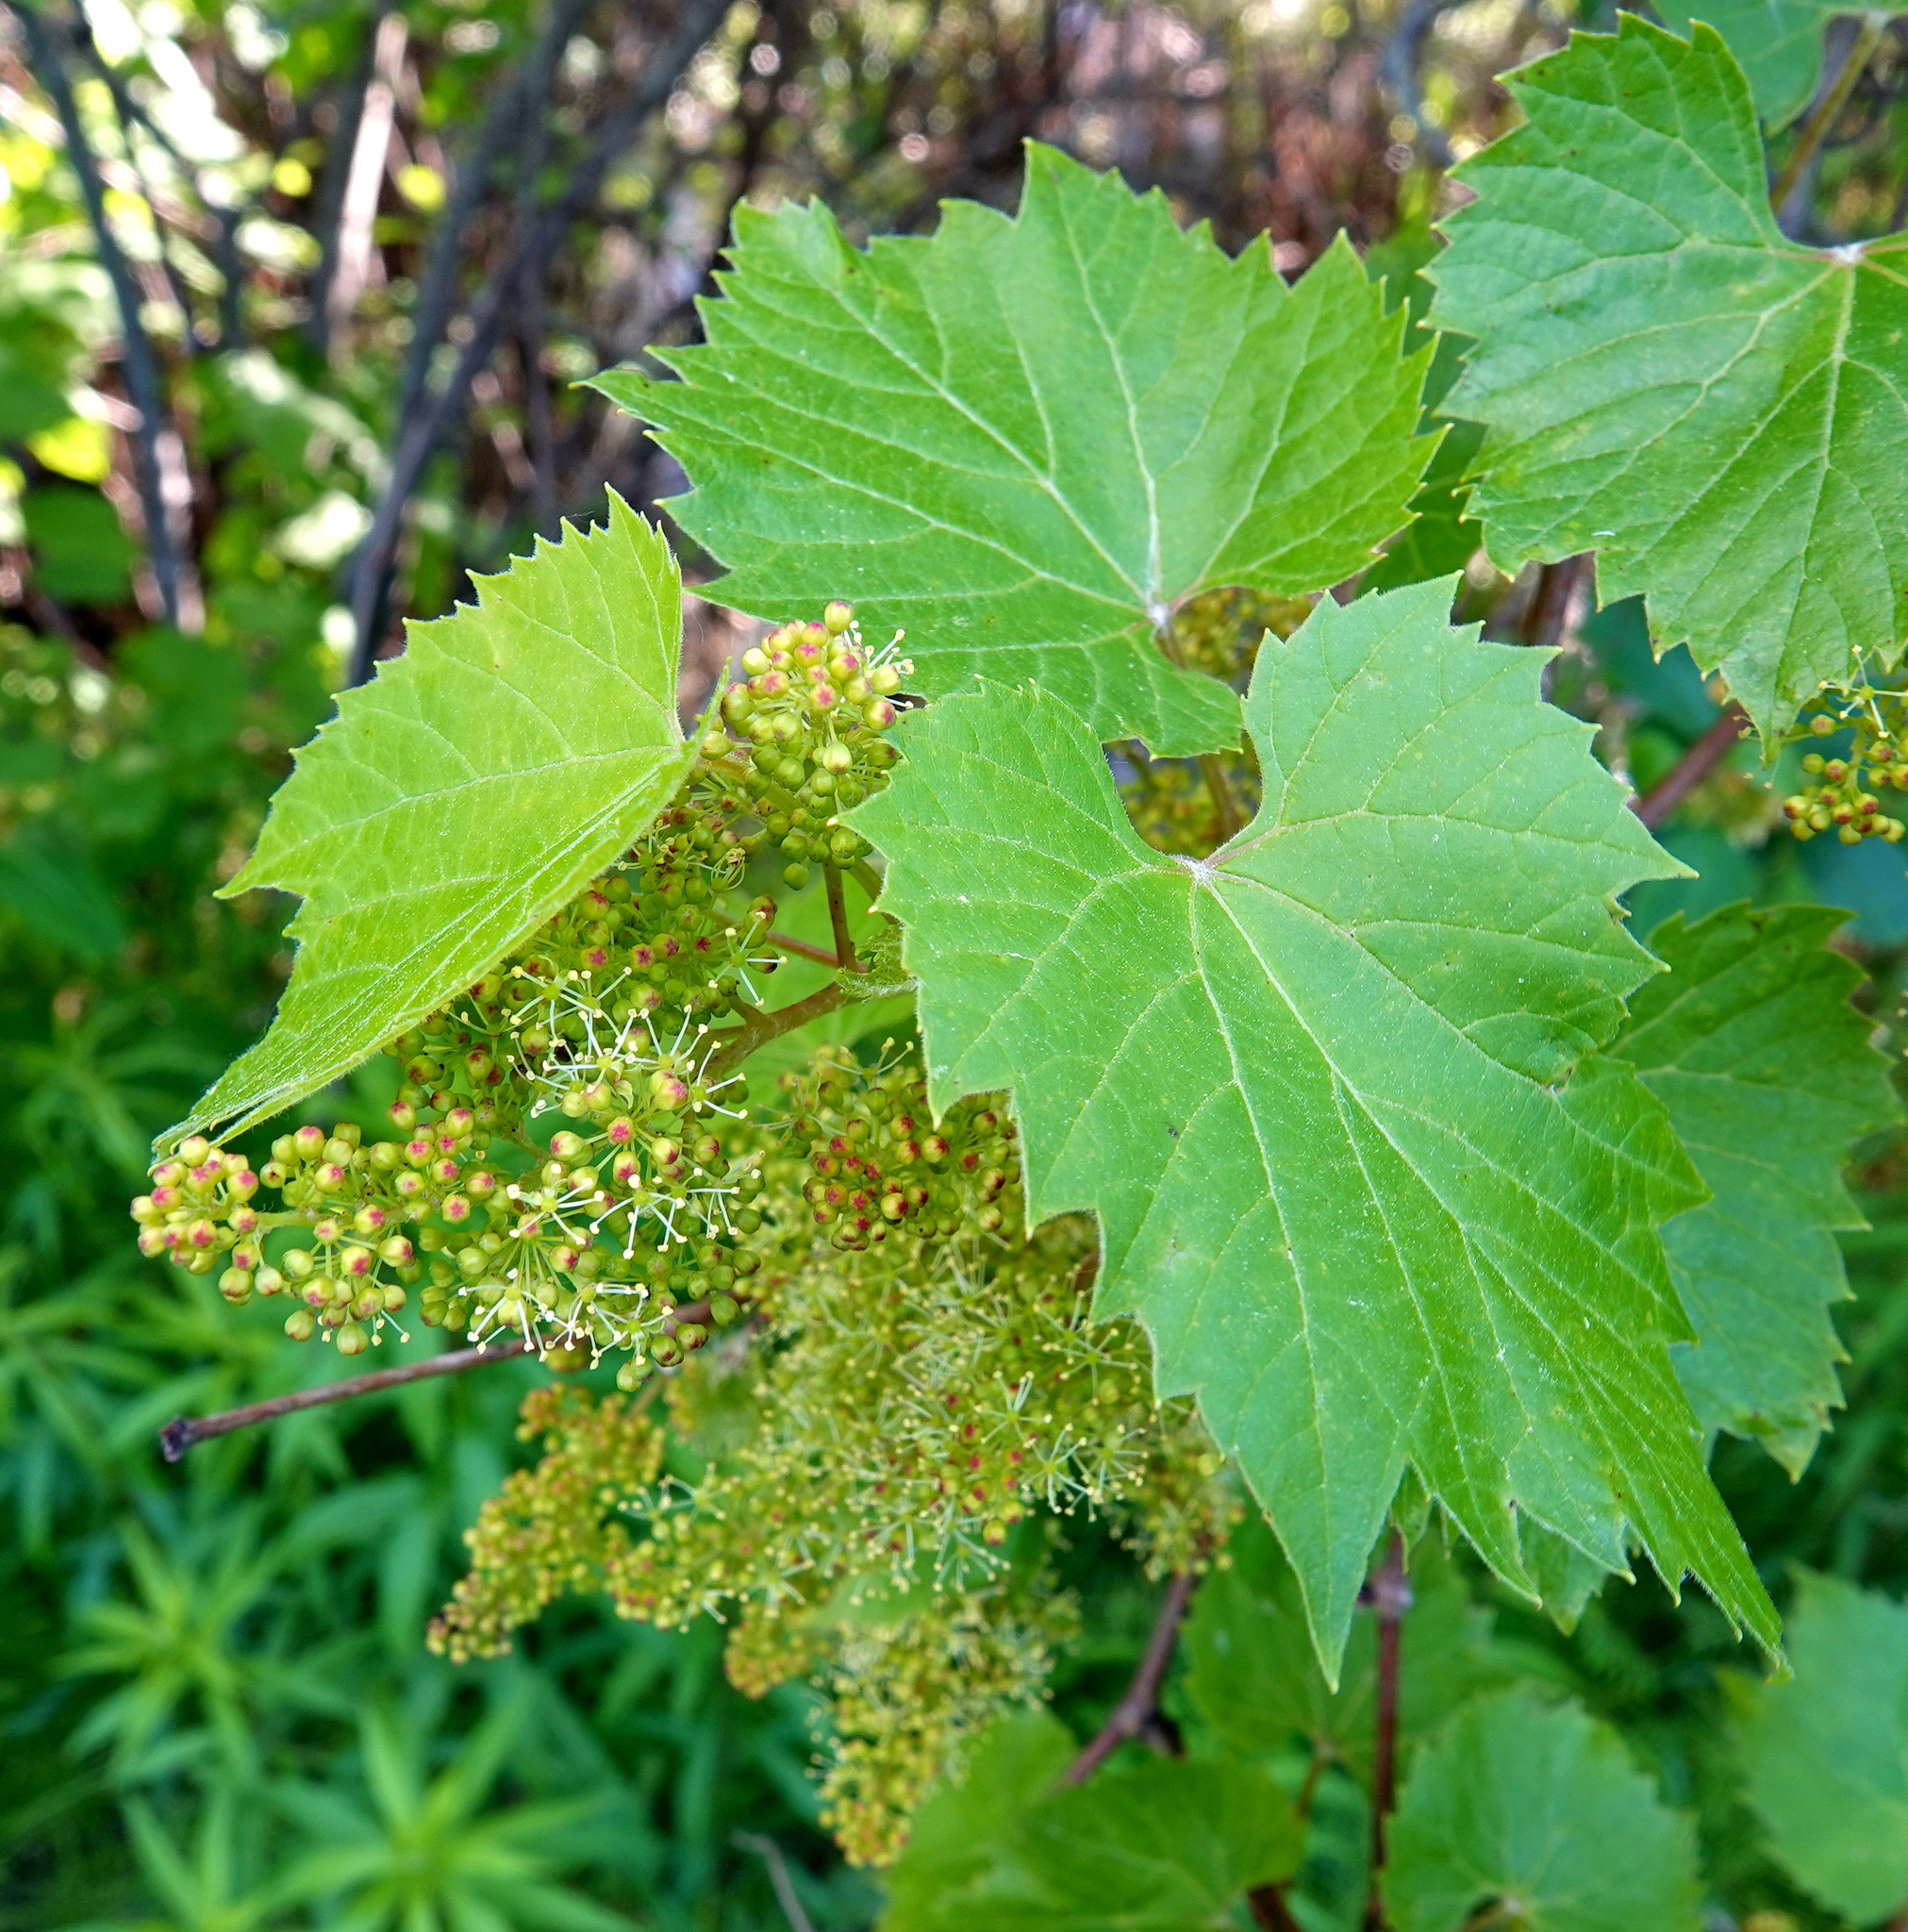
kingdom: Plantae
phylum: Tracheophyta
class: Magnoliopsida
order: Vitales
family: Vitaceae
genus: Vitis
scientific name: Vitis riparia
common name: Frost grape
